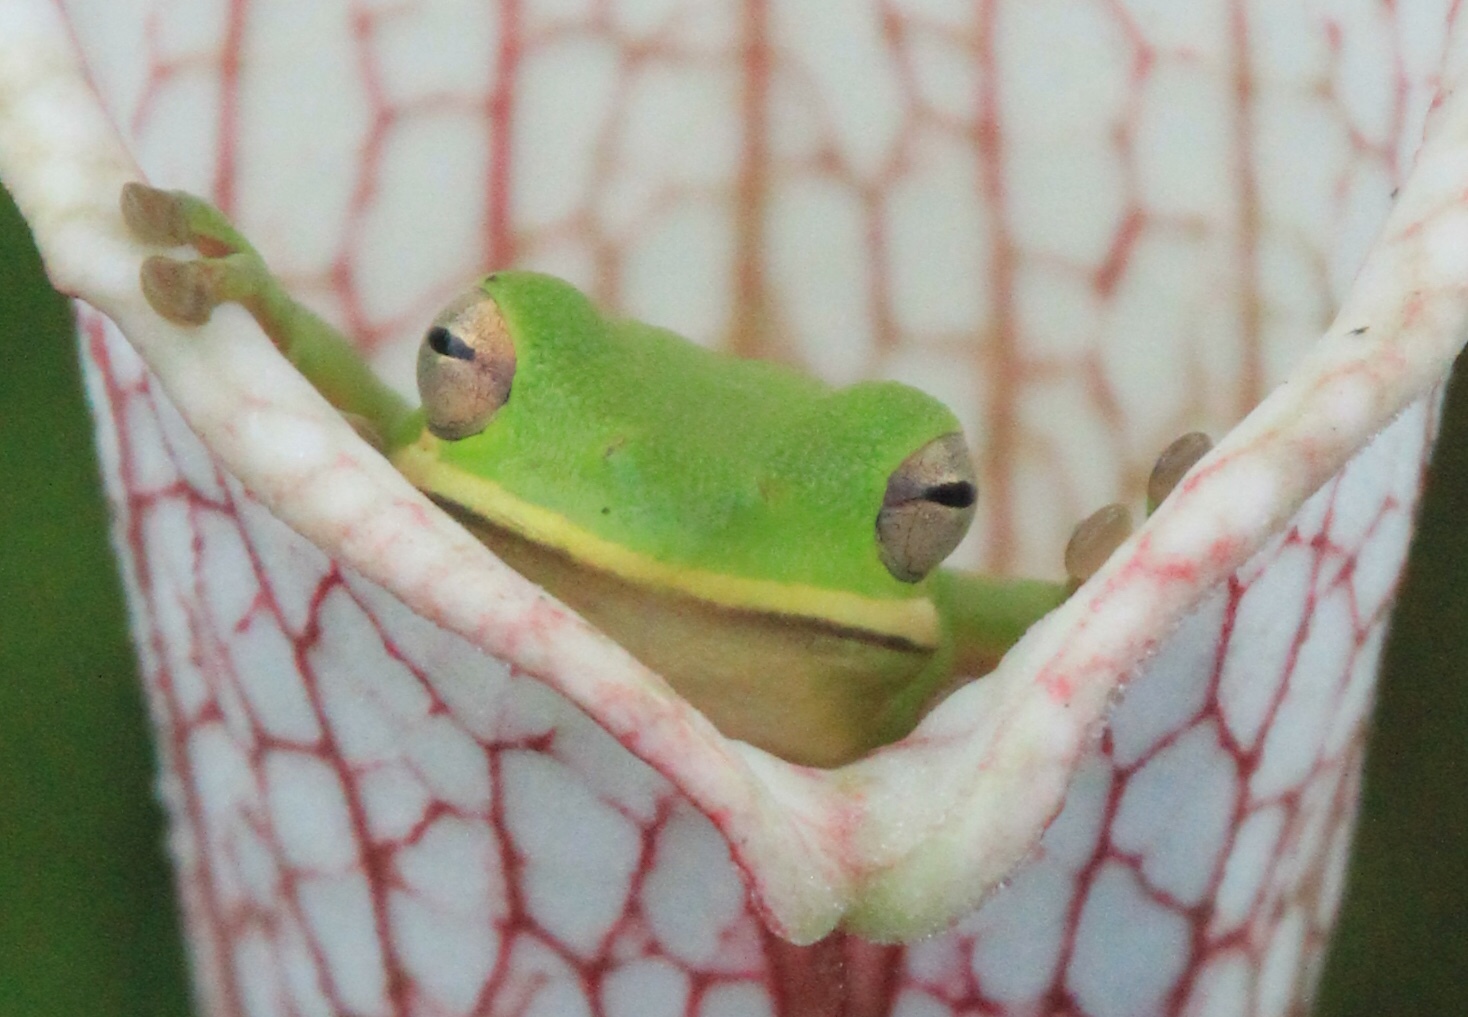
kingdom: Animalia
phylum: Chordata
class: Amphibia
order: Anura
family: Hylidae
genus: Dryophytes
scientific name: Dryophytes cinereus
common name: Green treefrog
